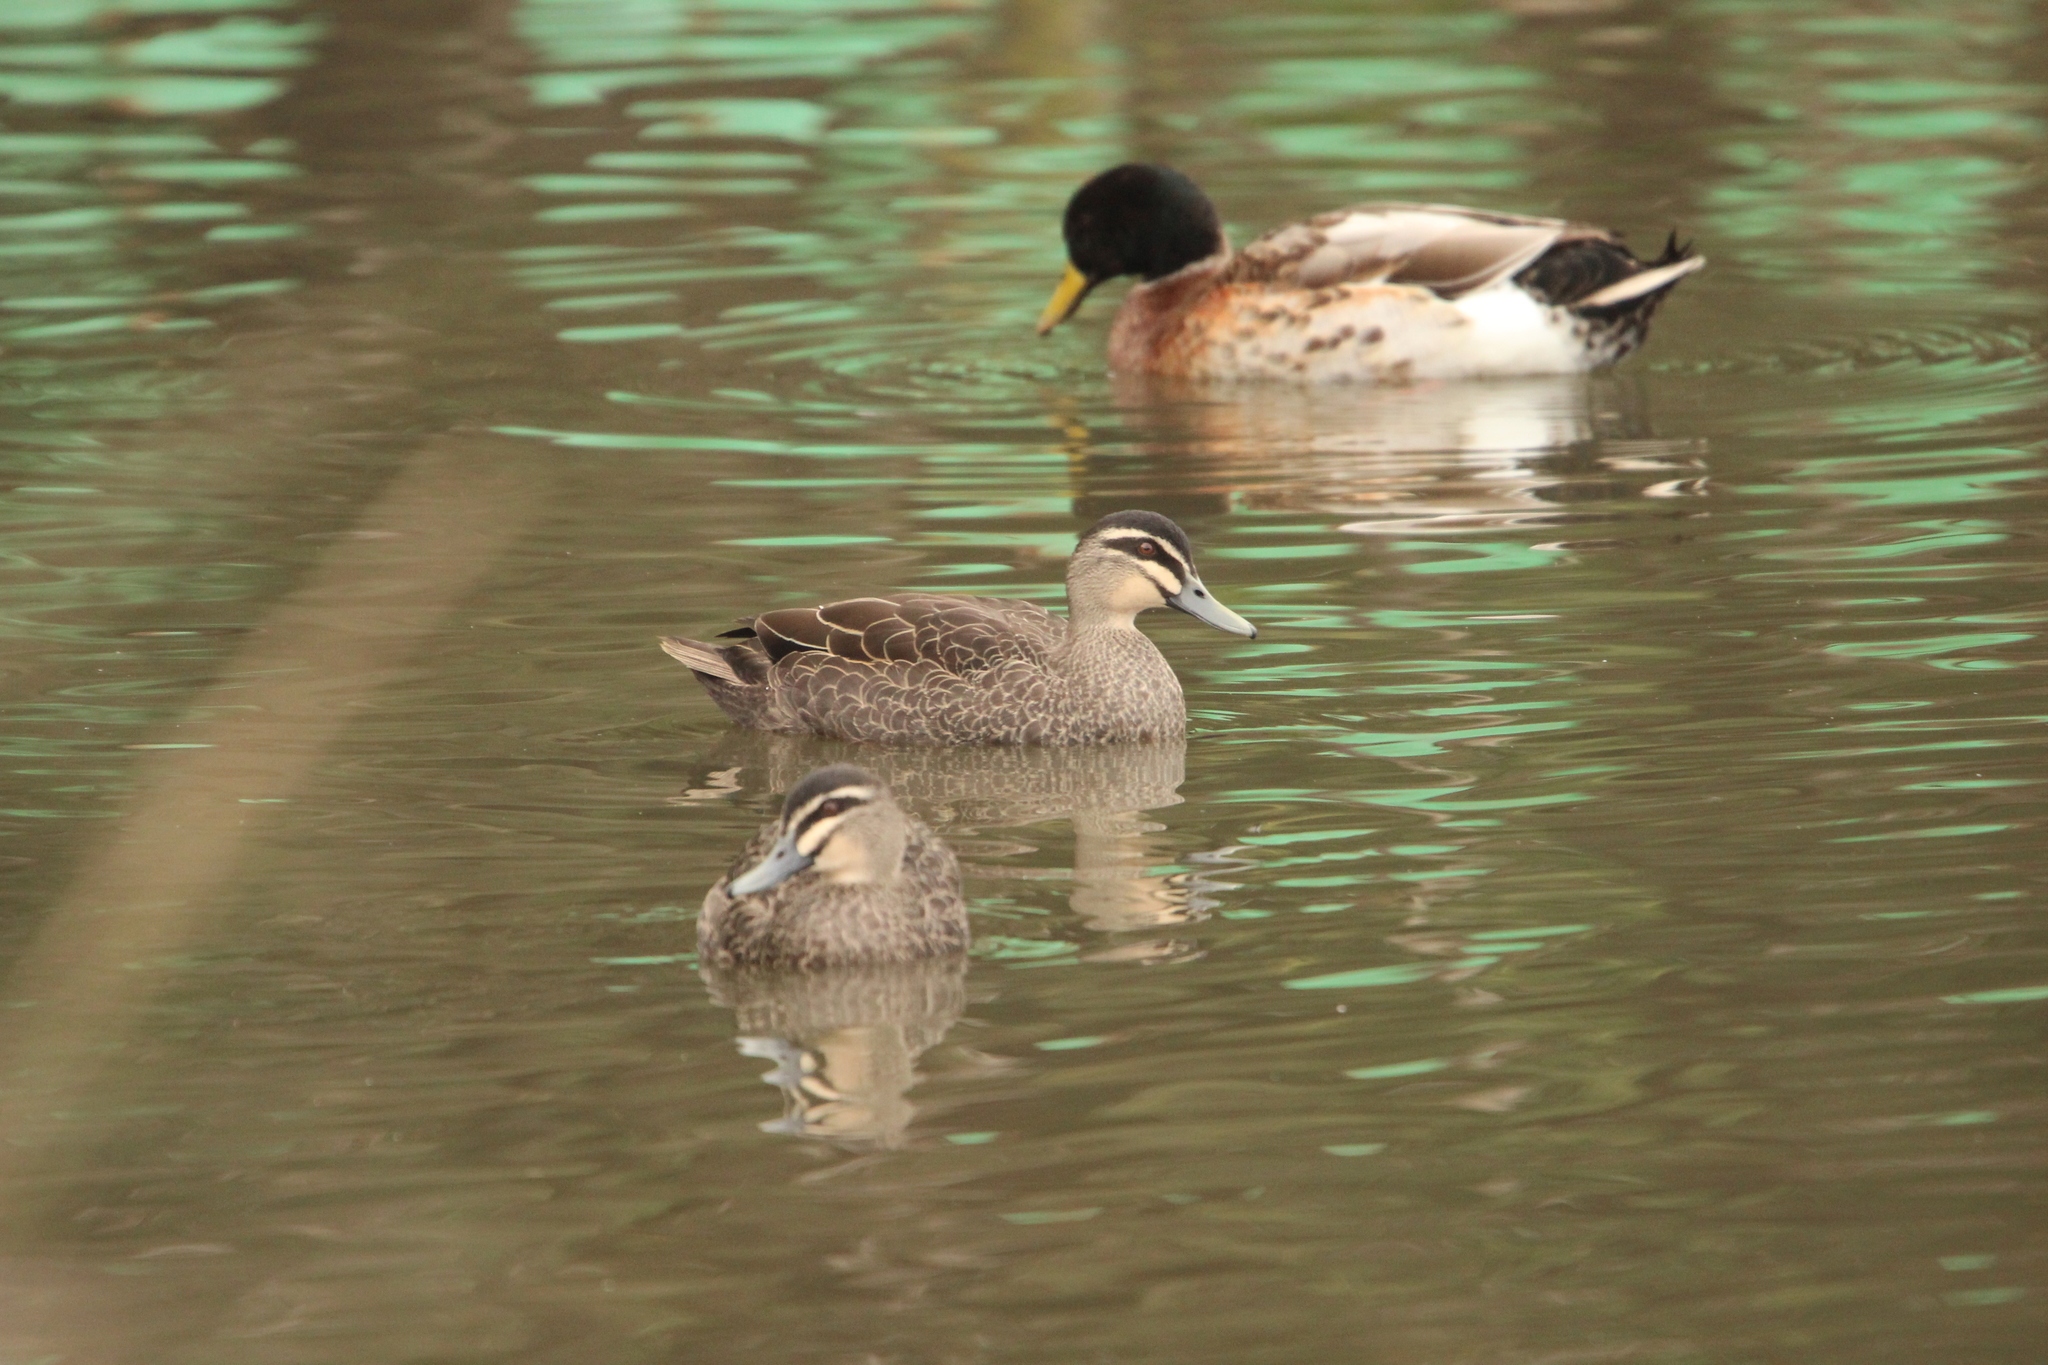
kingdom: Animalia
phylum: Chordata
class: Aves
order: Anseriformes
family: Anatidae
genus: Anas
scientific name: Anas platyrhynchos
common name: Mallard
